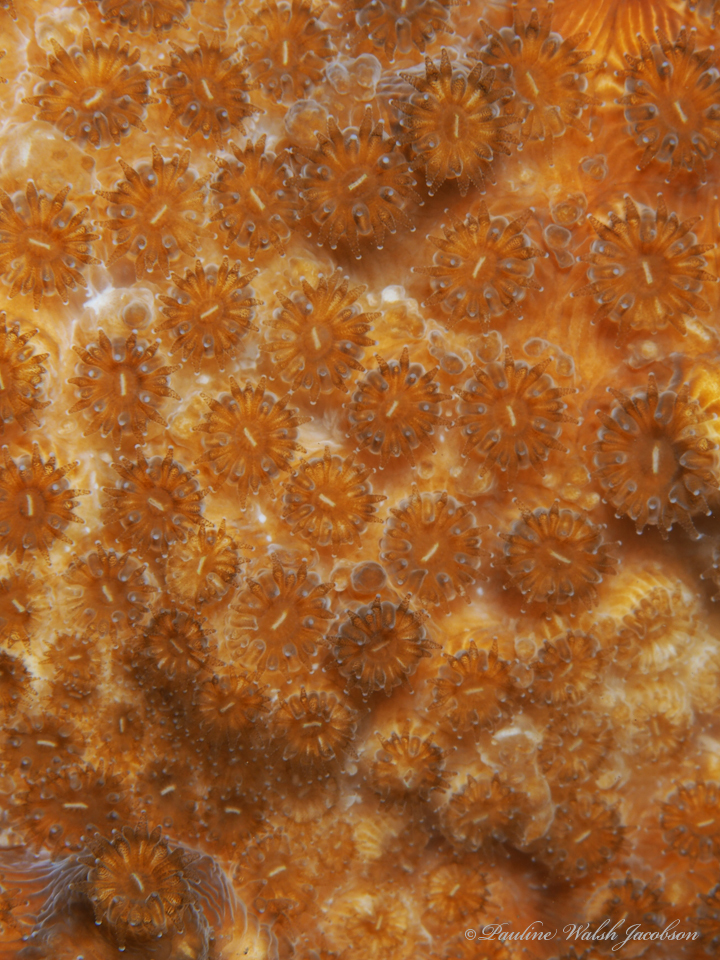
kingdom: Animalia
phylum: Cnidaria
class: Anthozoa
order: Scleractinia
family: Faviidae
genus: Solenastrea
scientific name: Solenastrea bournoni
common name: Smooth star coral
